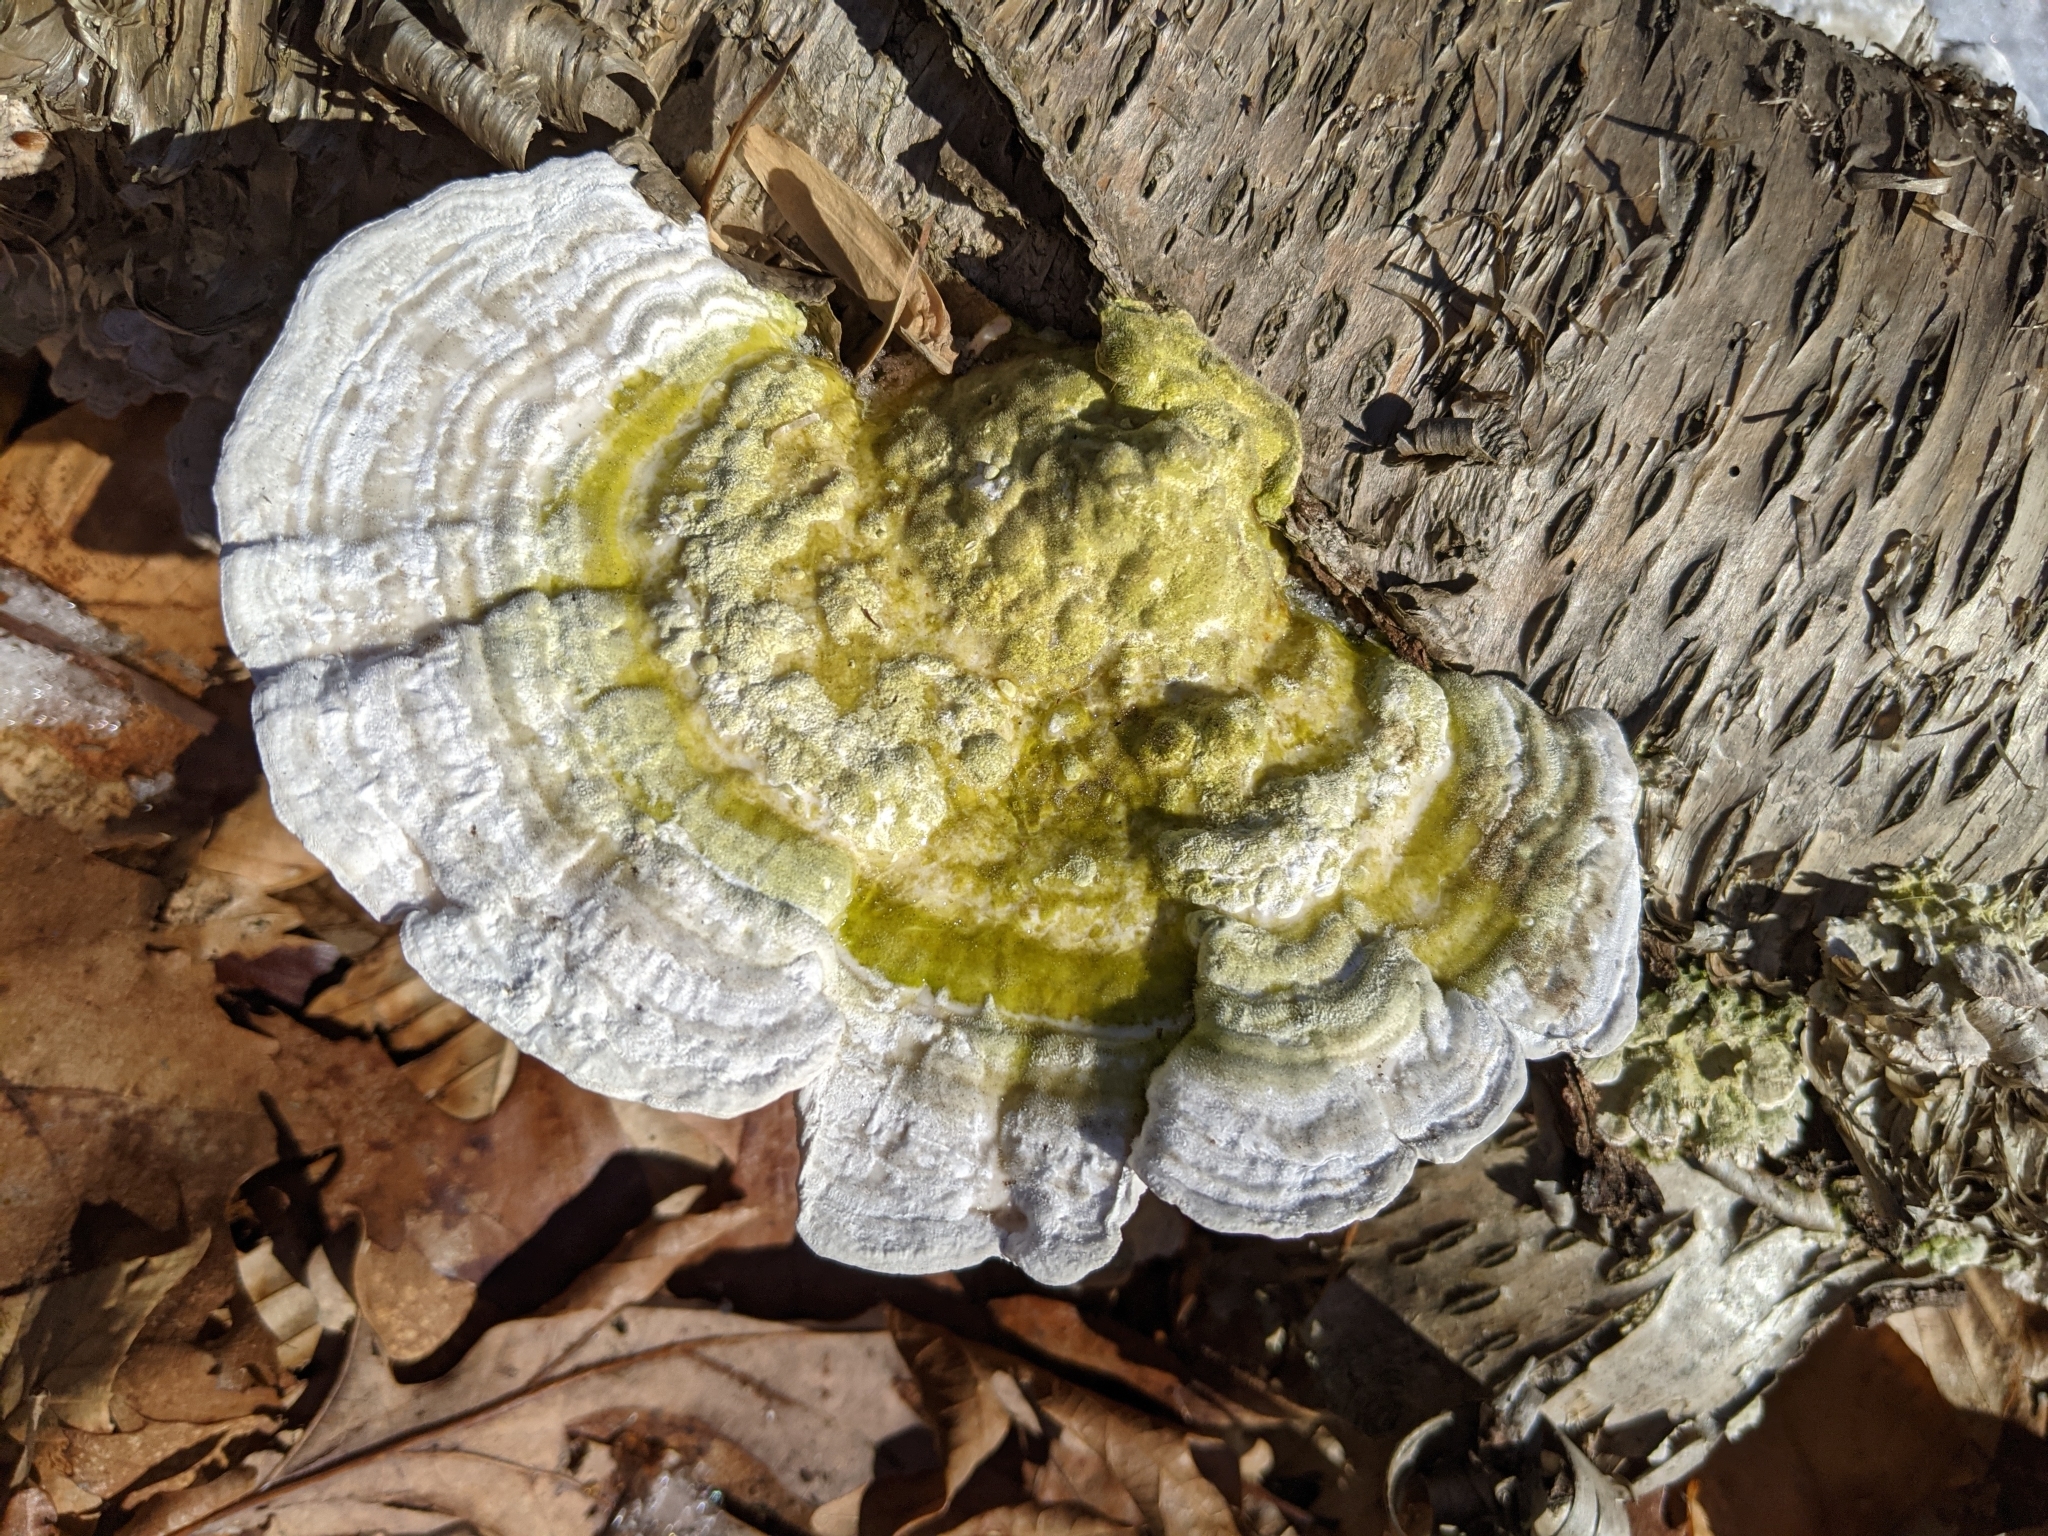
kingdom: Fungi
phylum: Basidiomycota
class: Agaricomycetes
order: Polyporales
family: Polyporaceae
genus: Trametes
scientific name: Trametes gibbosa
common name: Lumpy bracket
